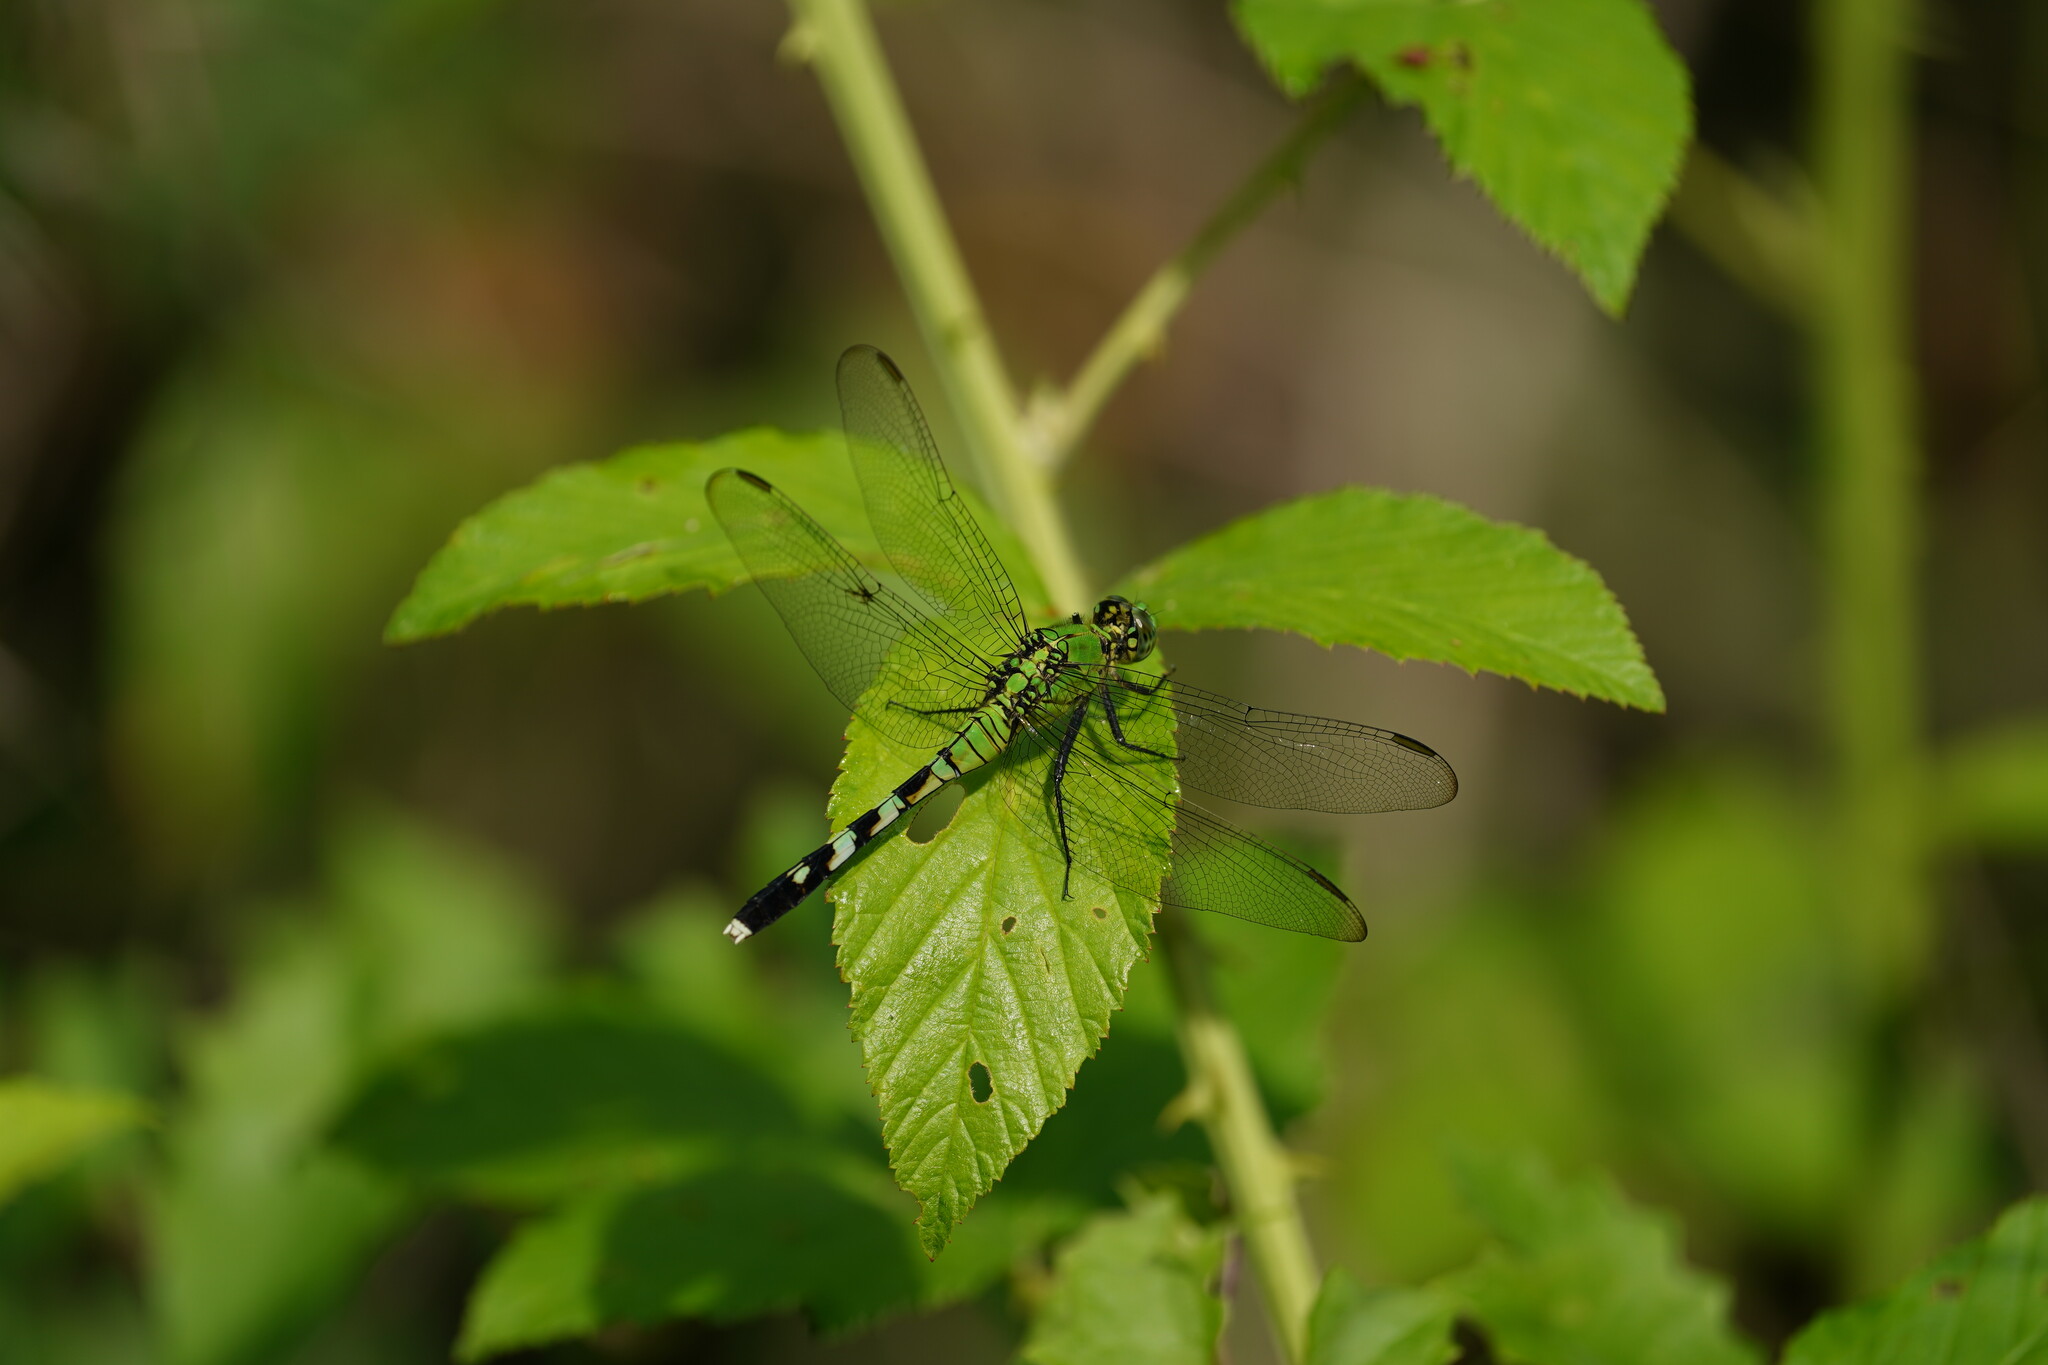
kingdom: Animalia
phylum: Arthropoda
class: Insecta
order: Odonata
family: Libellulidae
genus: Erythemis
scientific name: Erythemis simplicicollis
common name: Eastern pondhawk
